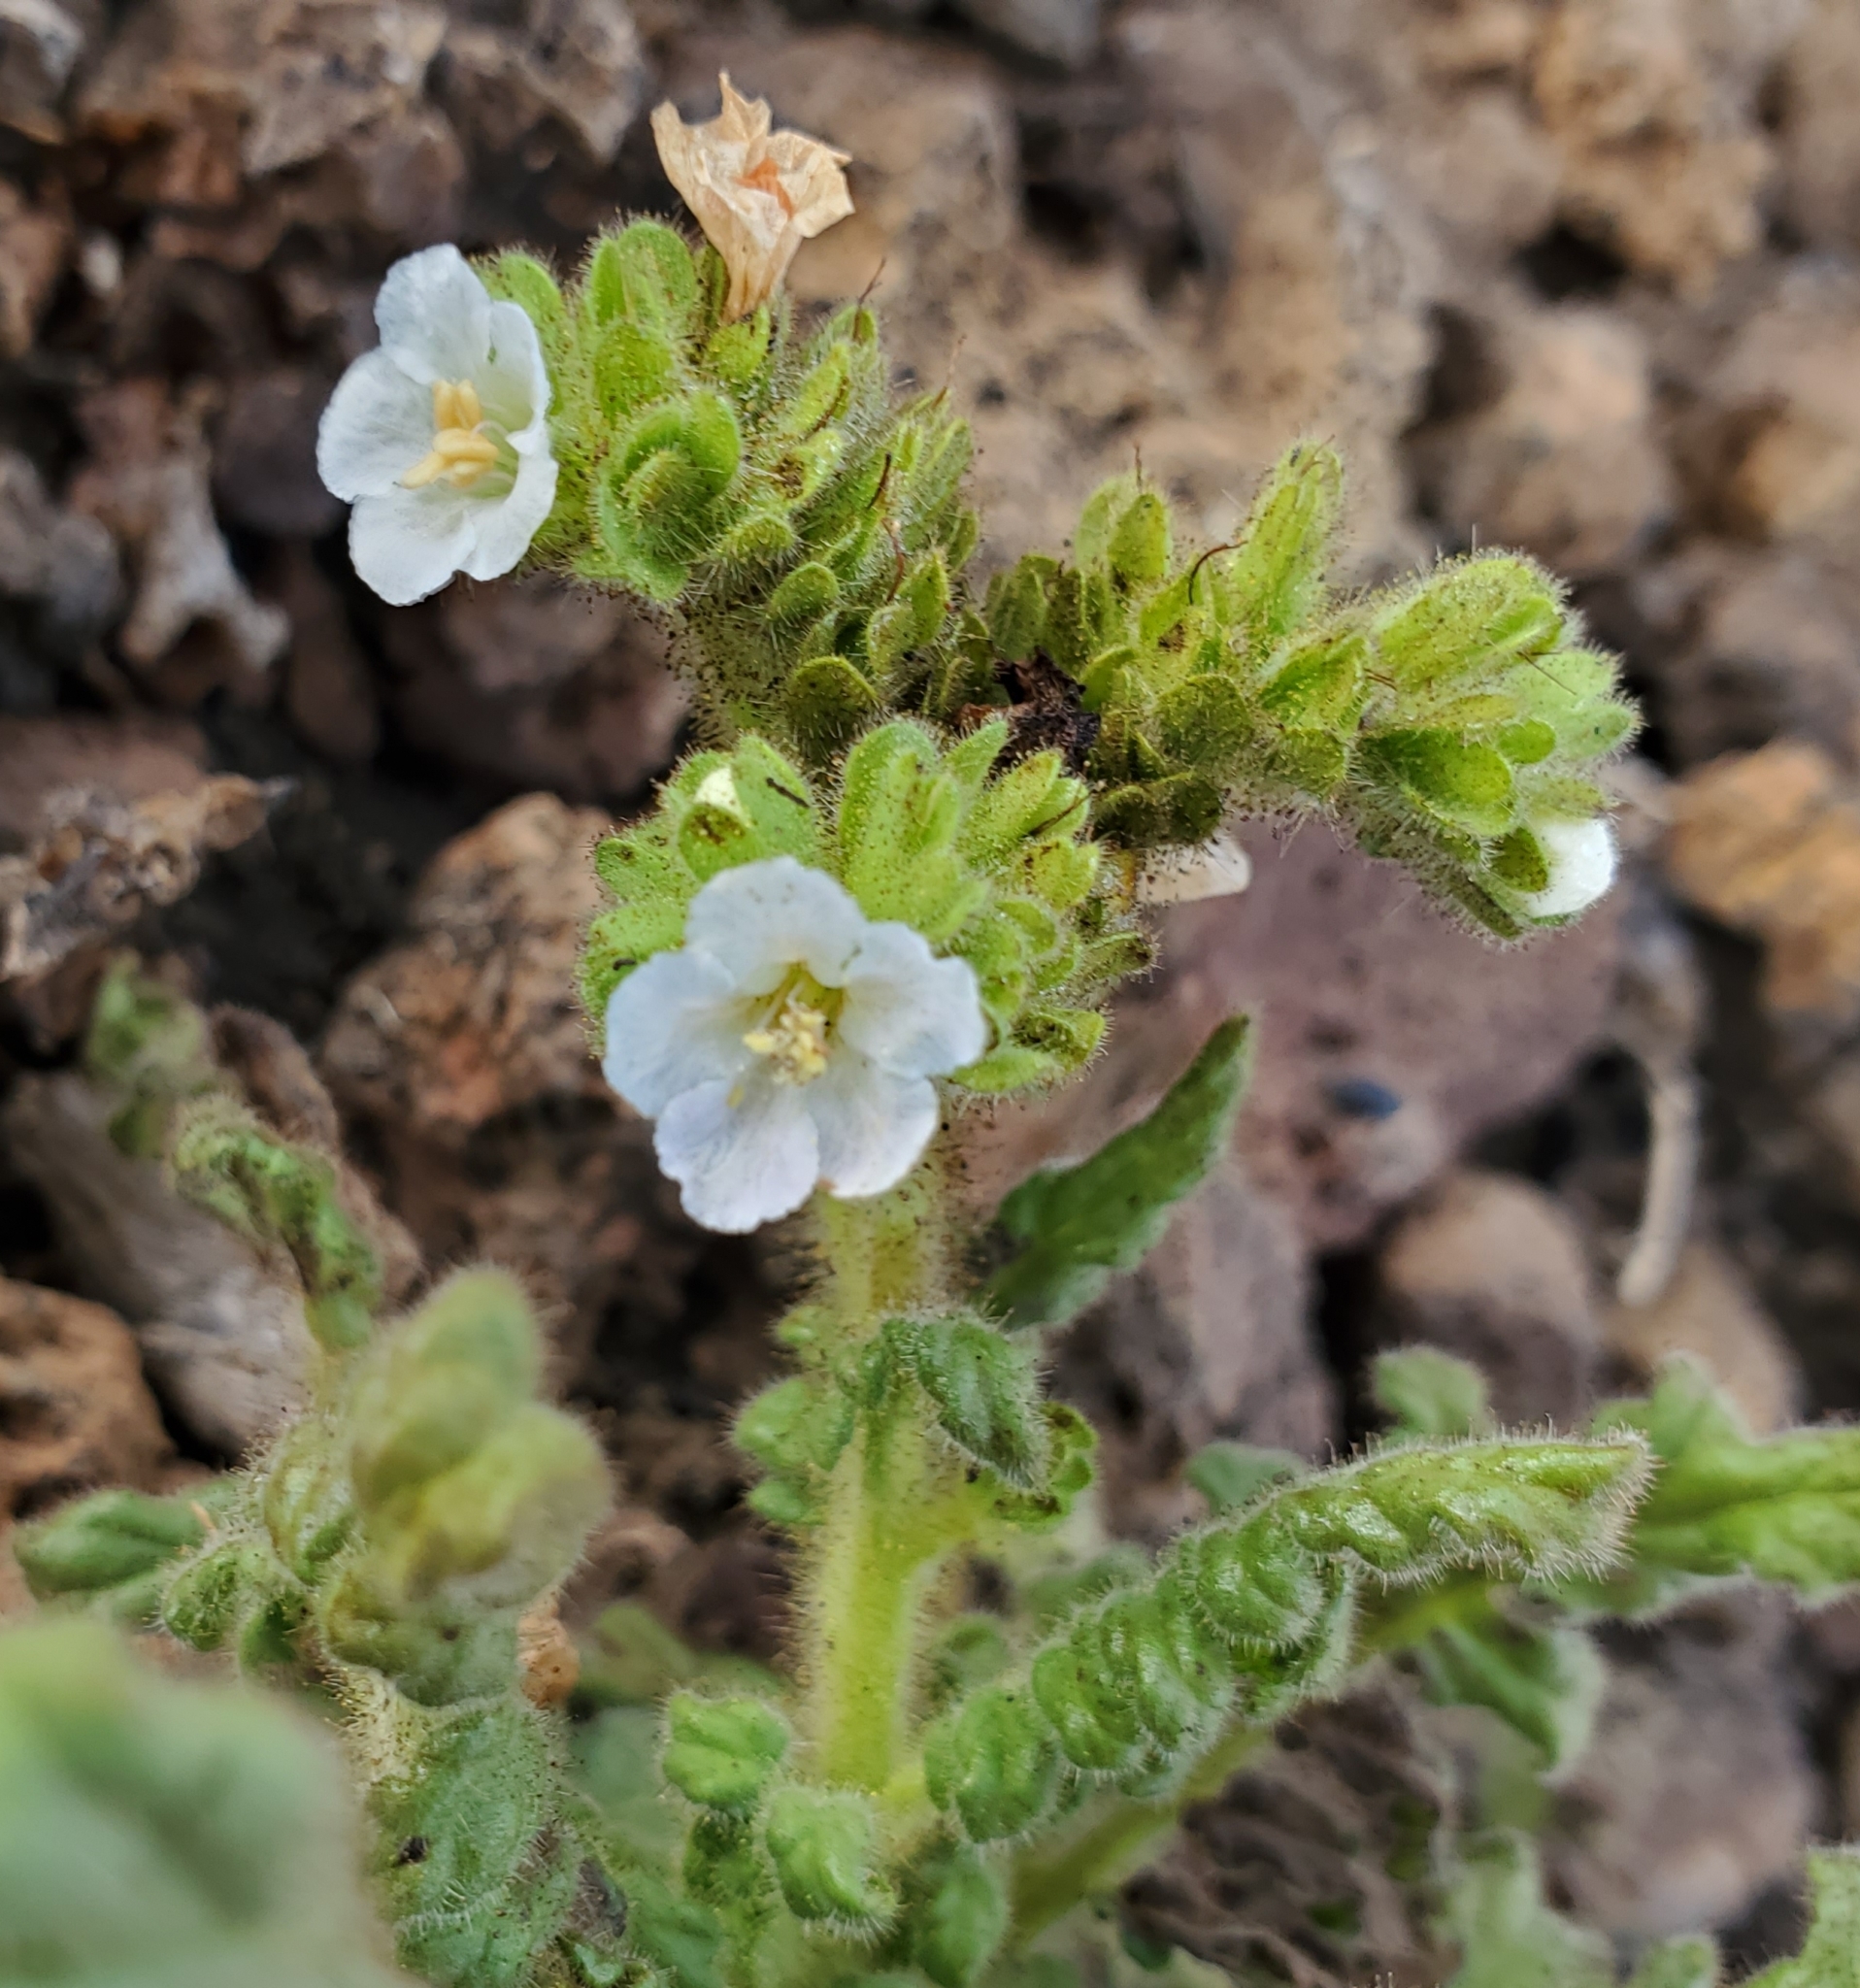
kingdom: Plantae
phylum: Tracheophyta
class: Magnoliopsida
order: Boraginales
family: Hydrophyllaceae
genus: Phacelia
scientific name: Phacelia ixodes
